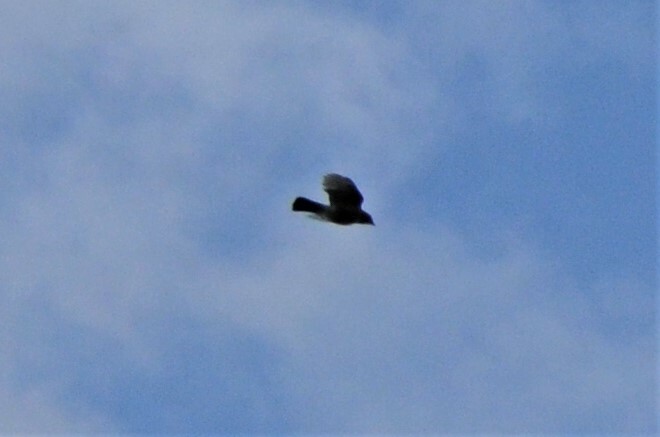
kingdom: Animalia
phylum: Chordata
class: Aves
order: Passeriformes
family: Corvidae
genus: Garrulus
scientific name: Garrulus glandarius
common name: Eurasian jay
